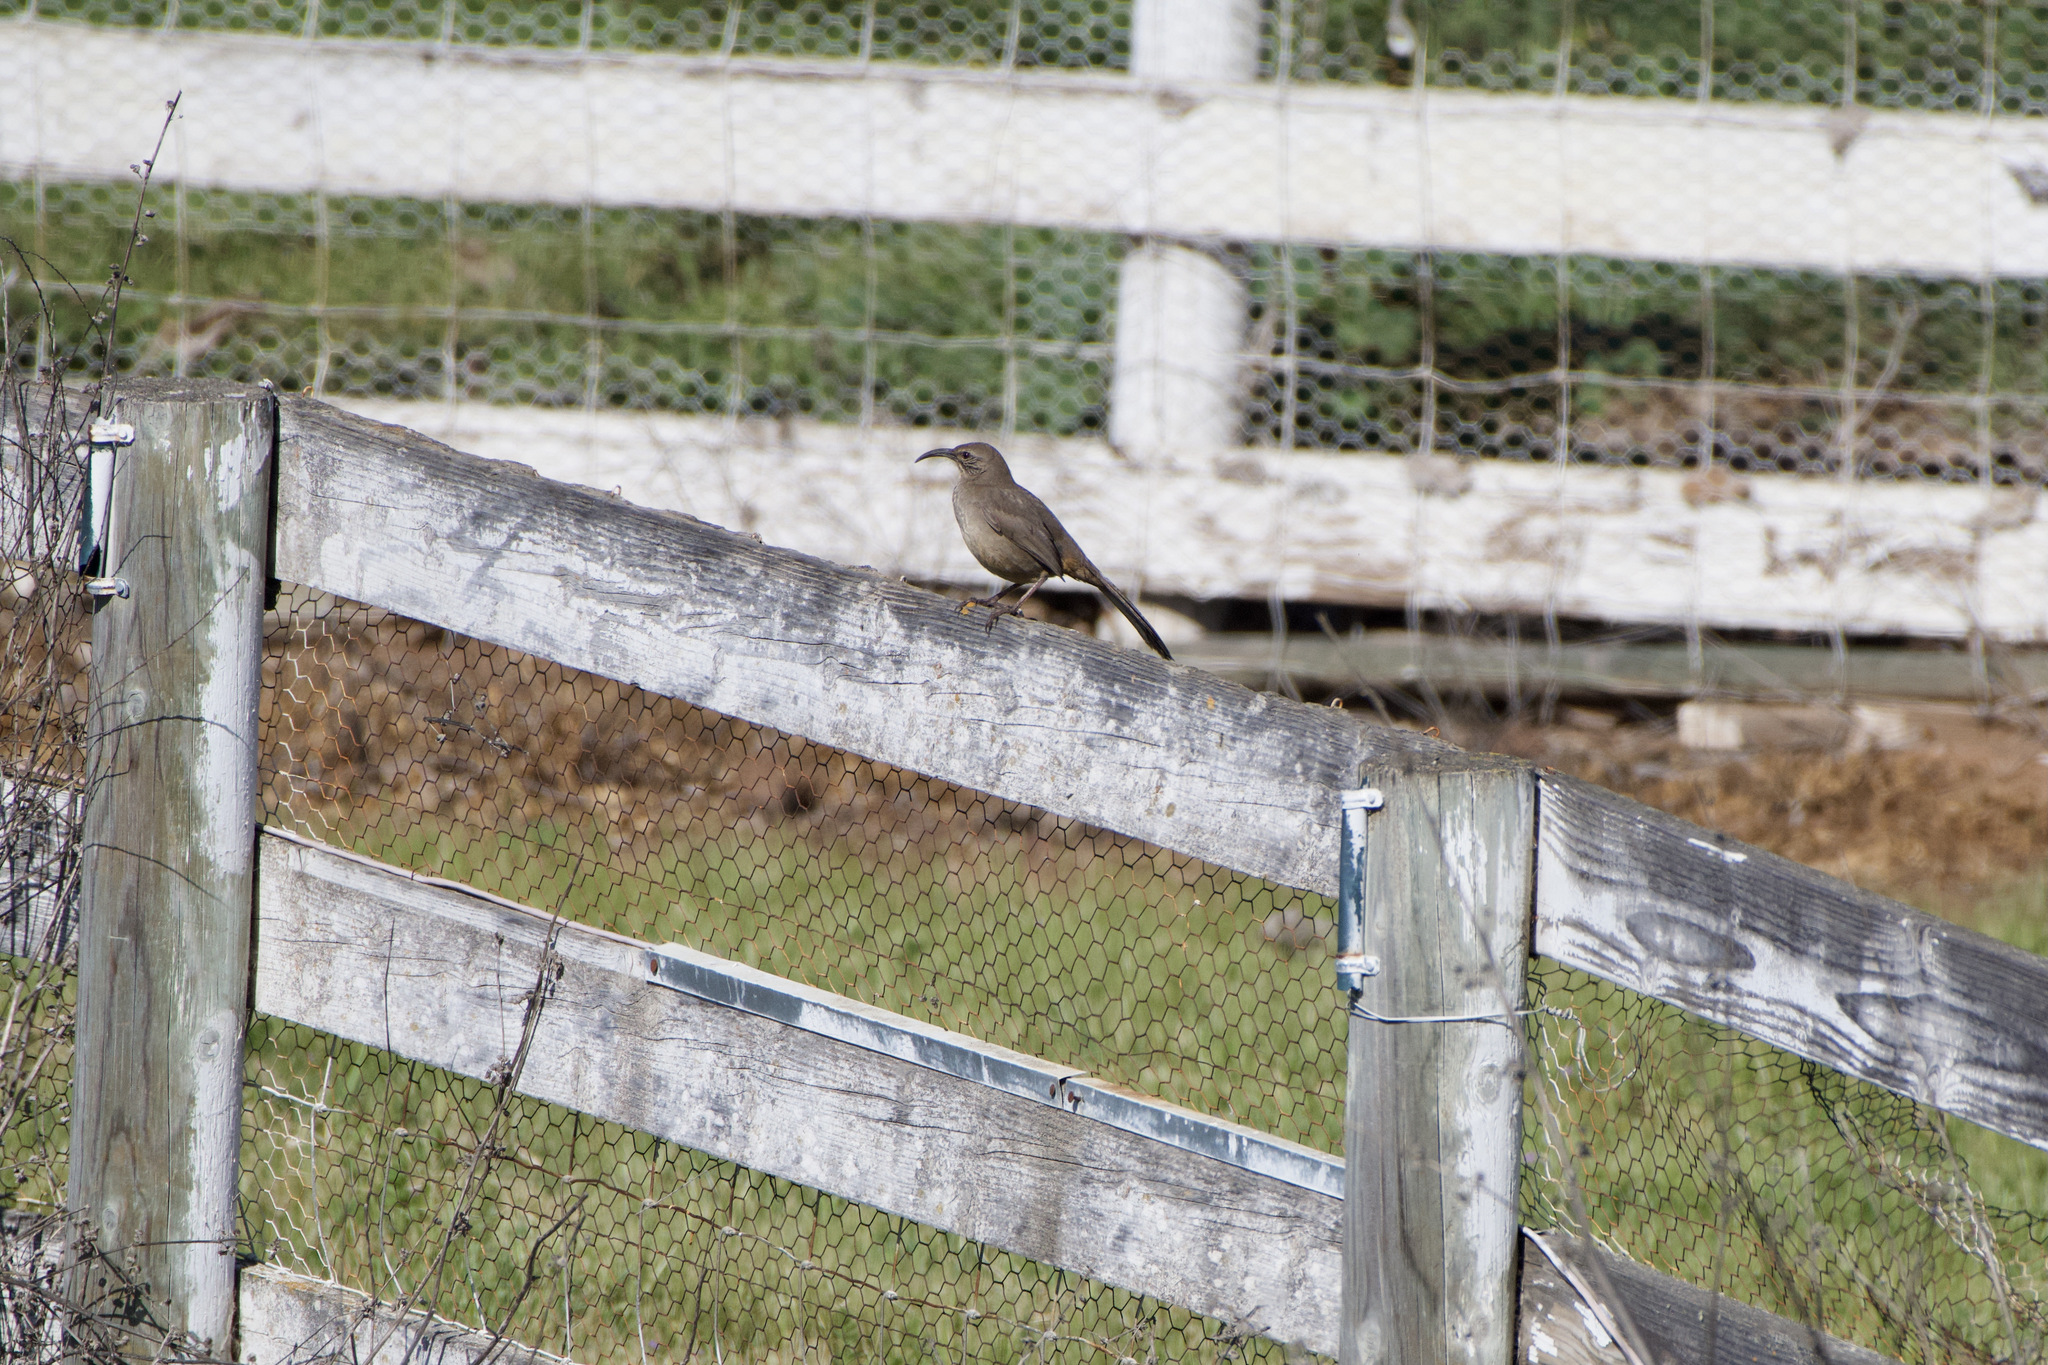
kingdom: Animalia
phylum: Chordata
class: Aves
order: Passeriformes
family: Mimidae
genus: Toxostoma
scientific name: Toxostoma redivivum
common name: California thrasher
